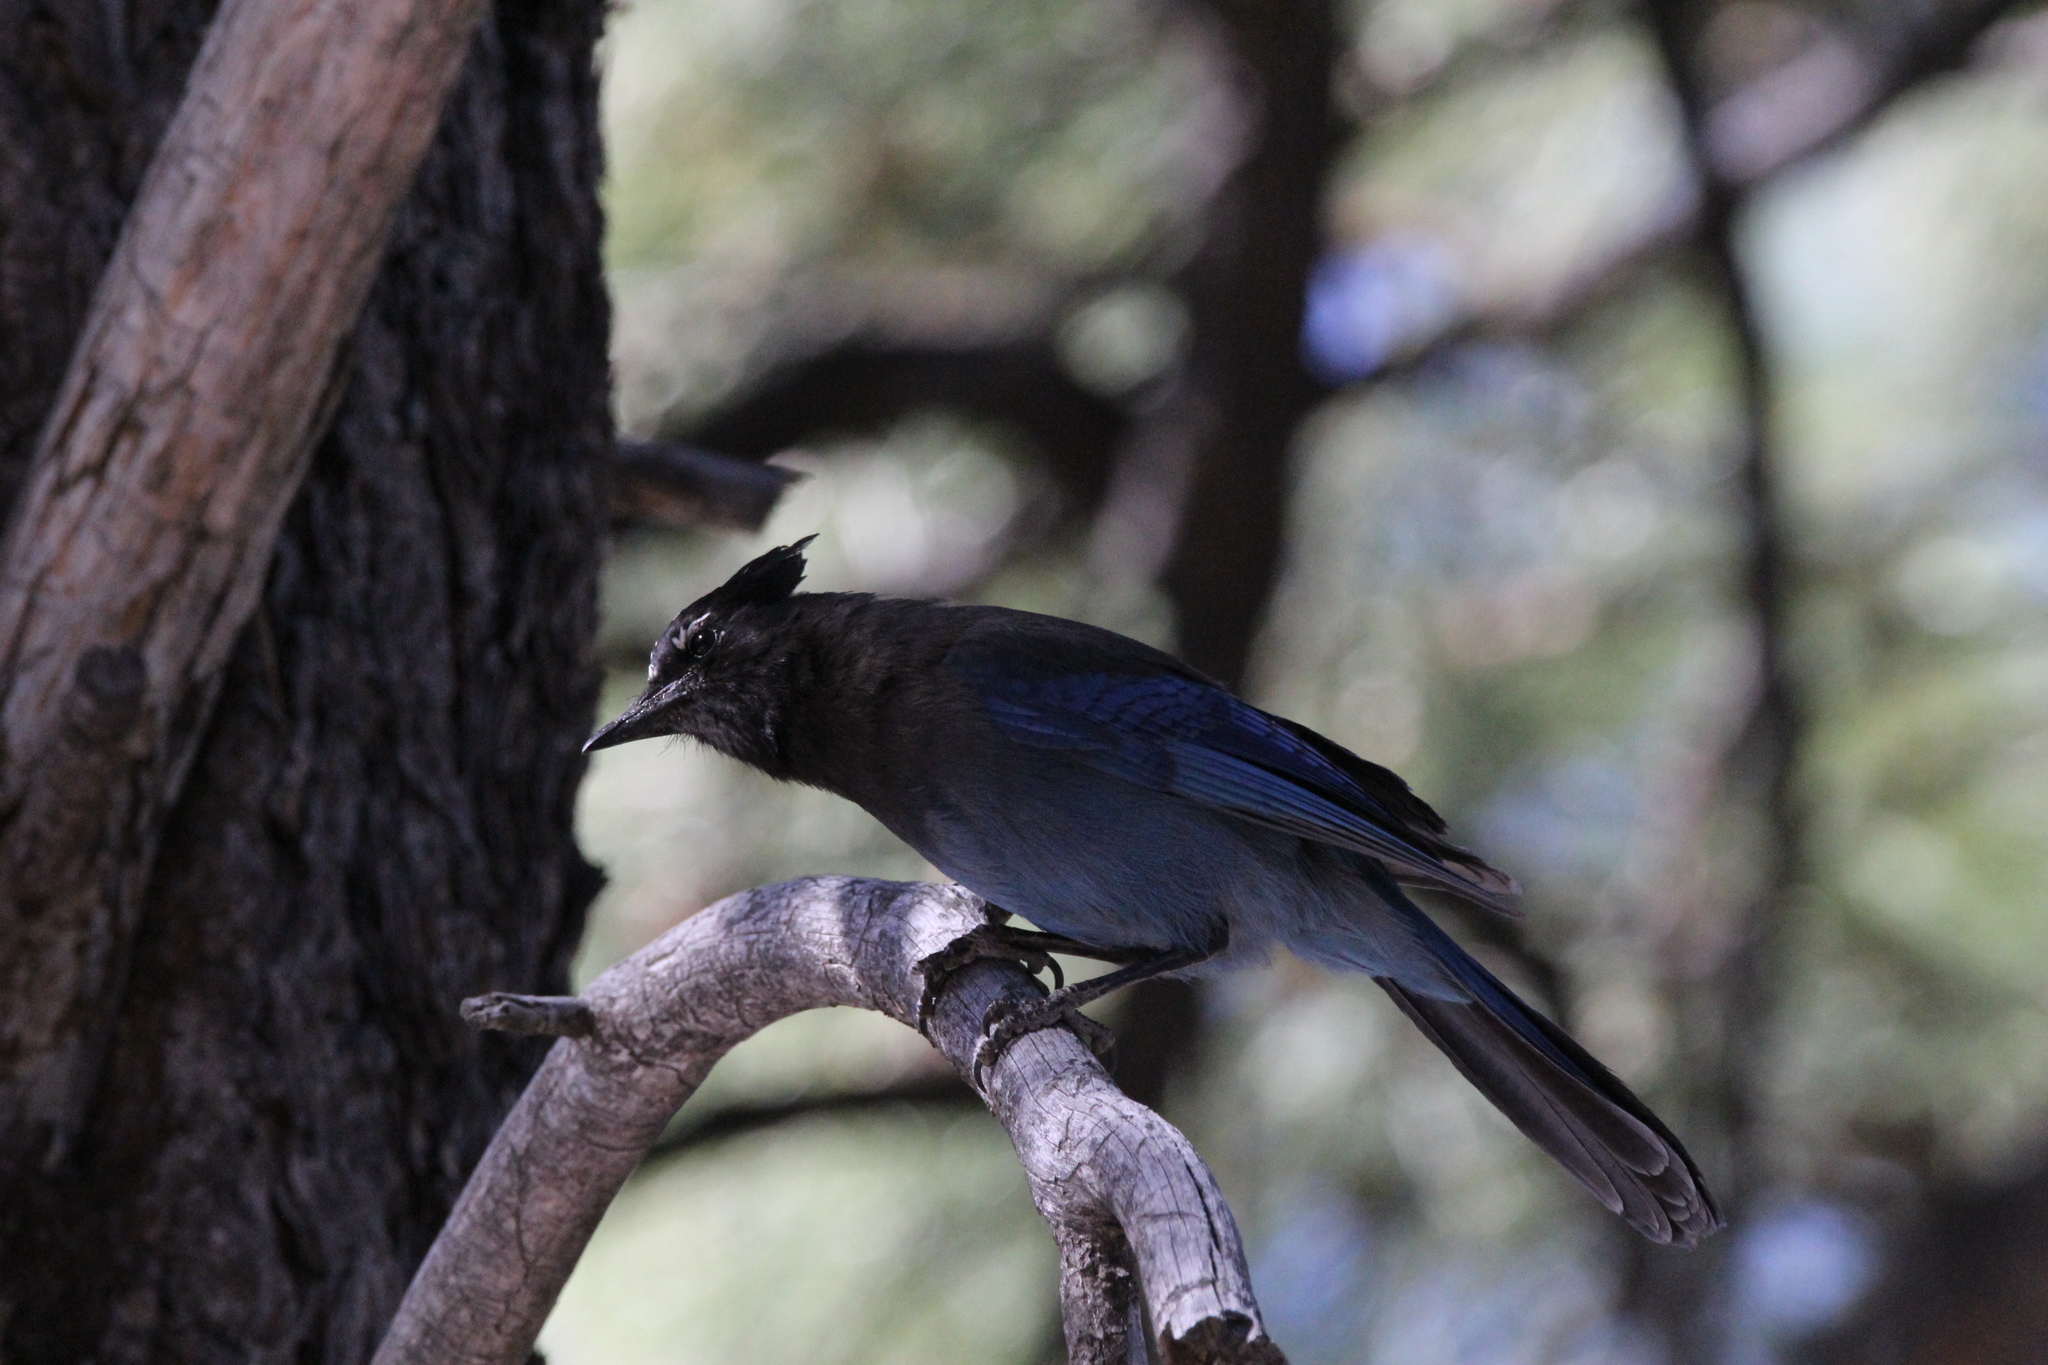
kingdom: Animalia
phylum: Chordata
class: Aves
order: Passeriformes
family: Corvidae
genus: Cyanocitta
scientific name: Cyanocitta stelleri
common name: Steller's jay
